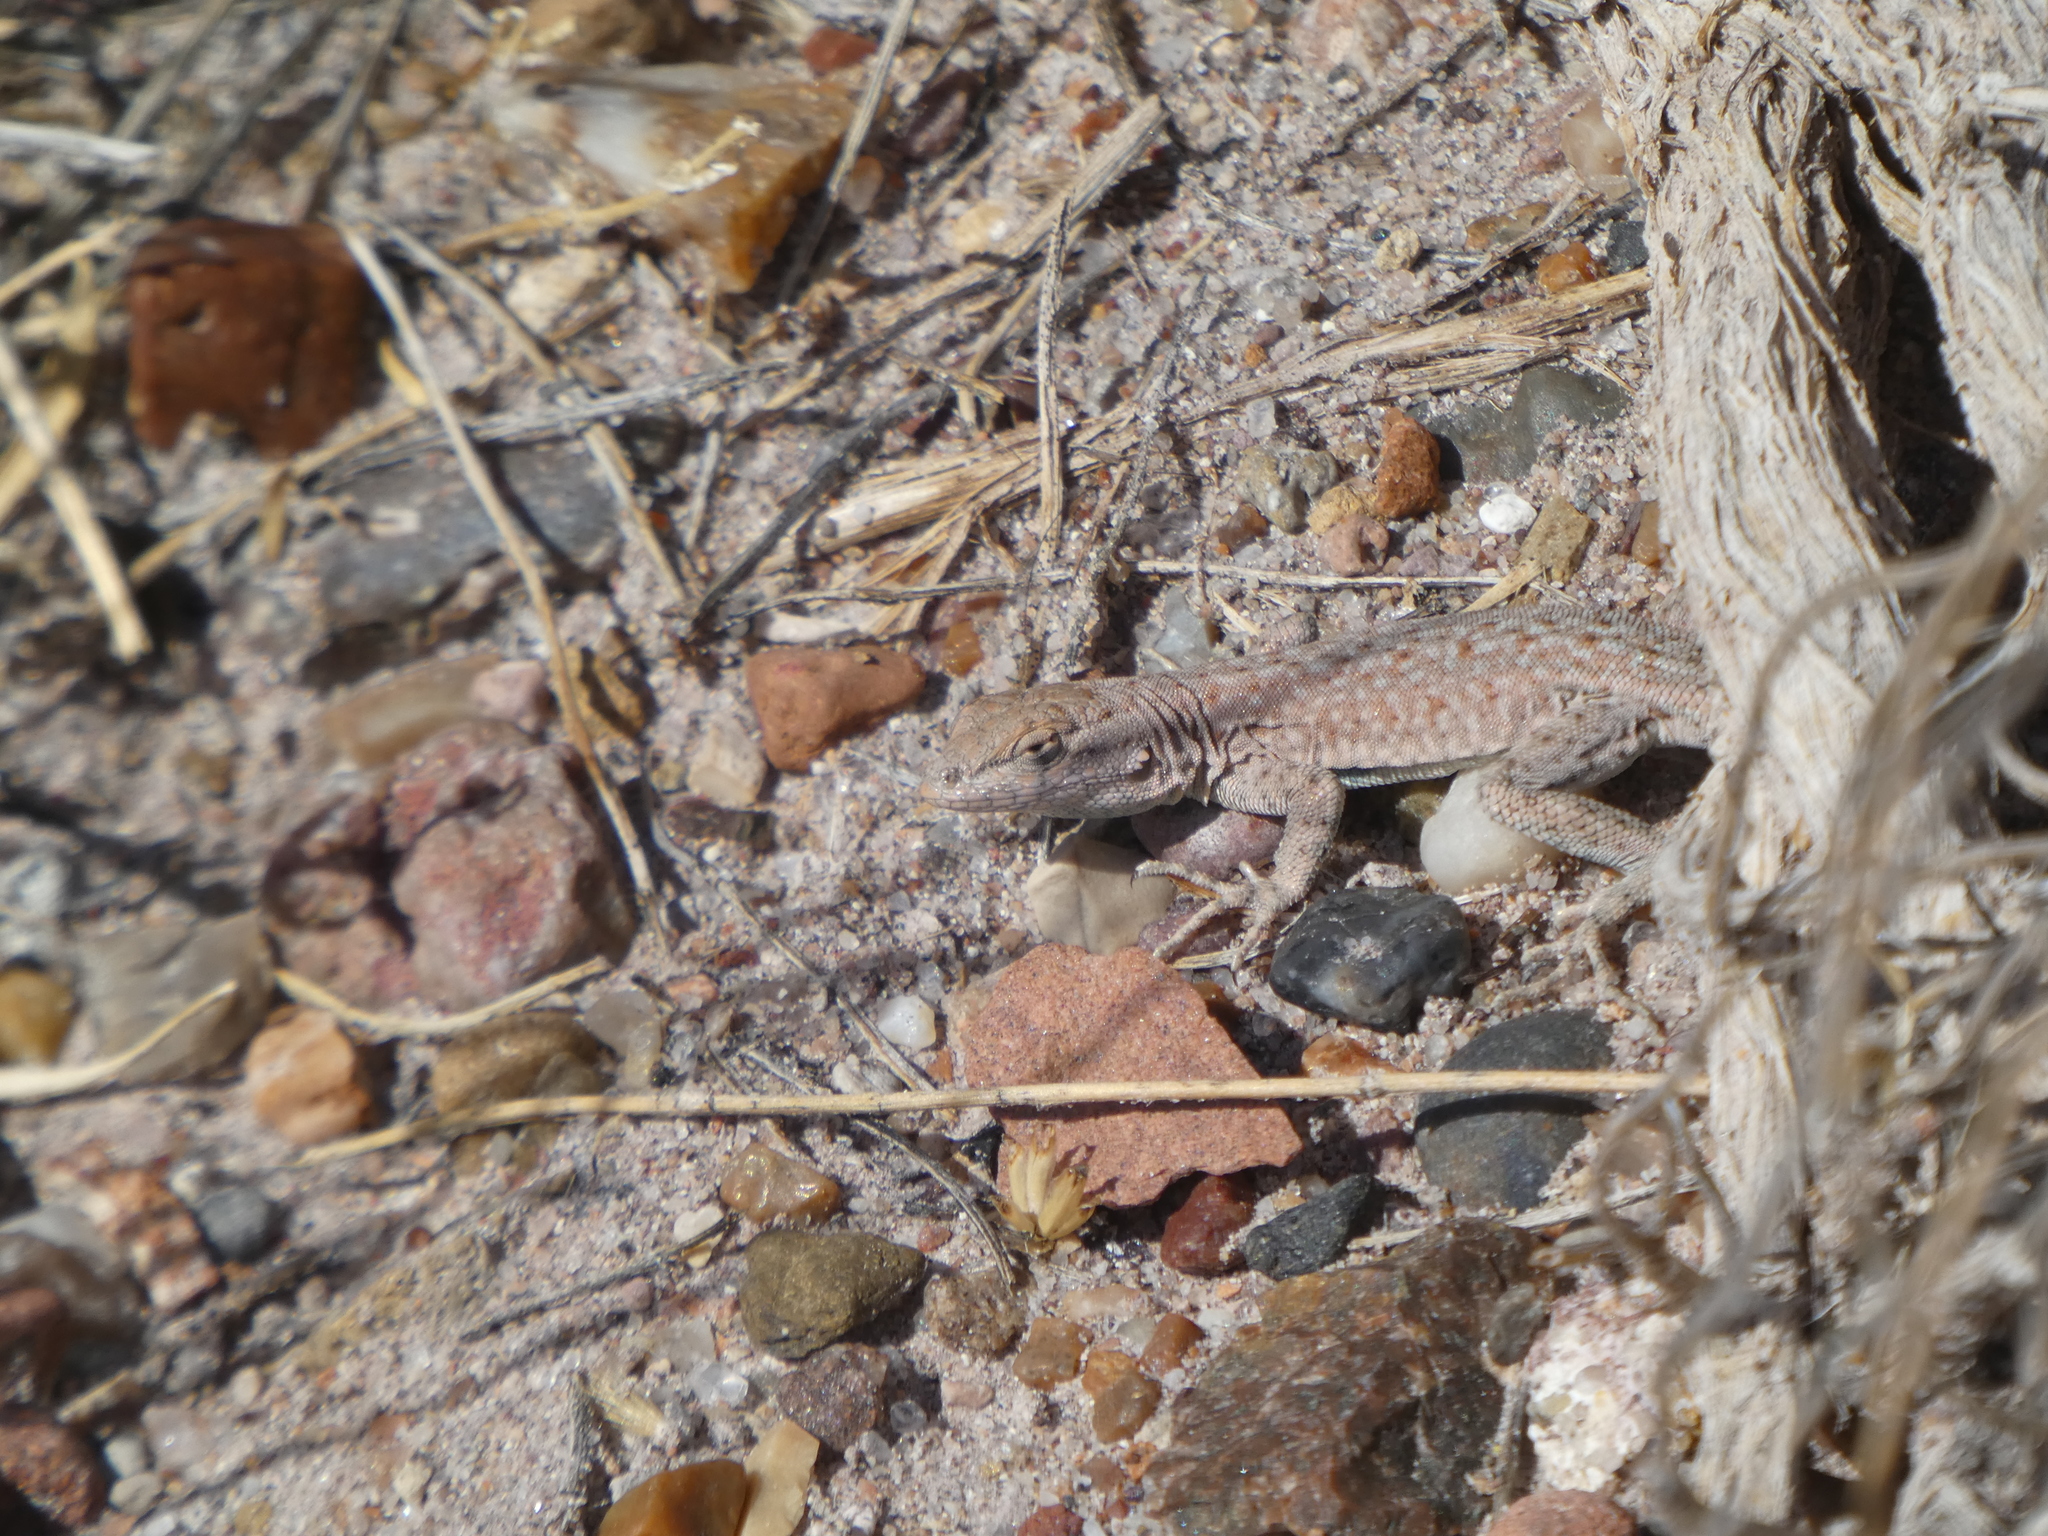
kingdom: Animalia
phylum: Chordata
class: Squamata
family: Phrynosomatidae
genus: Uta
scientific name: Uta stansburiana
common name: Side-blotched lizard
